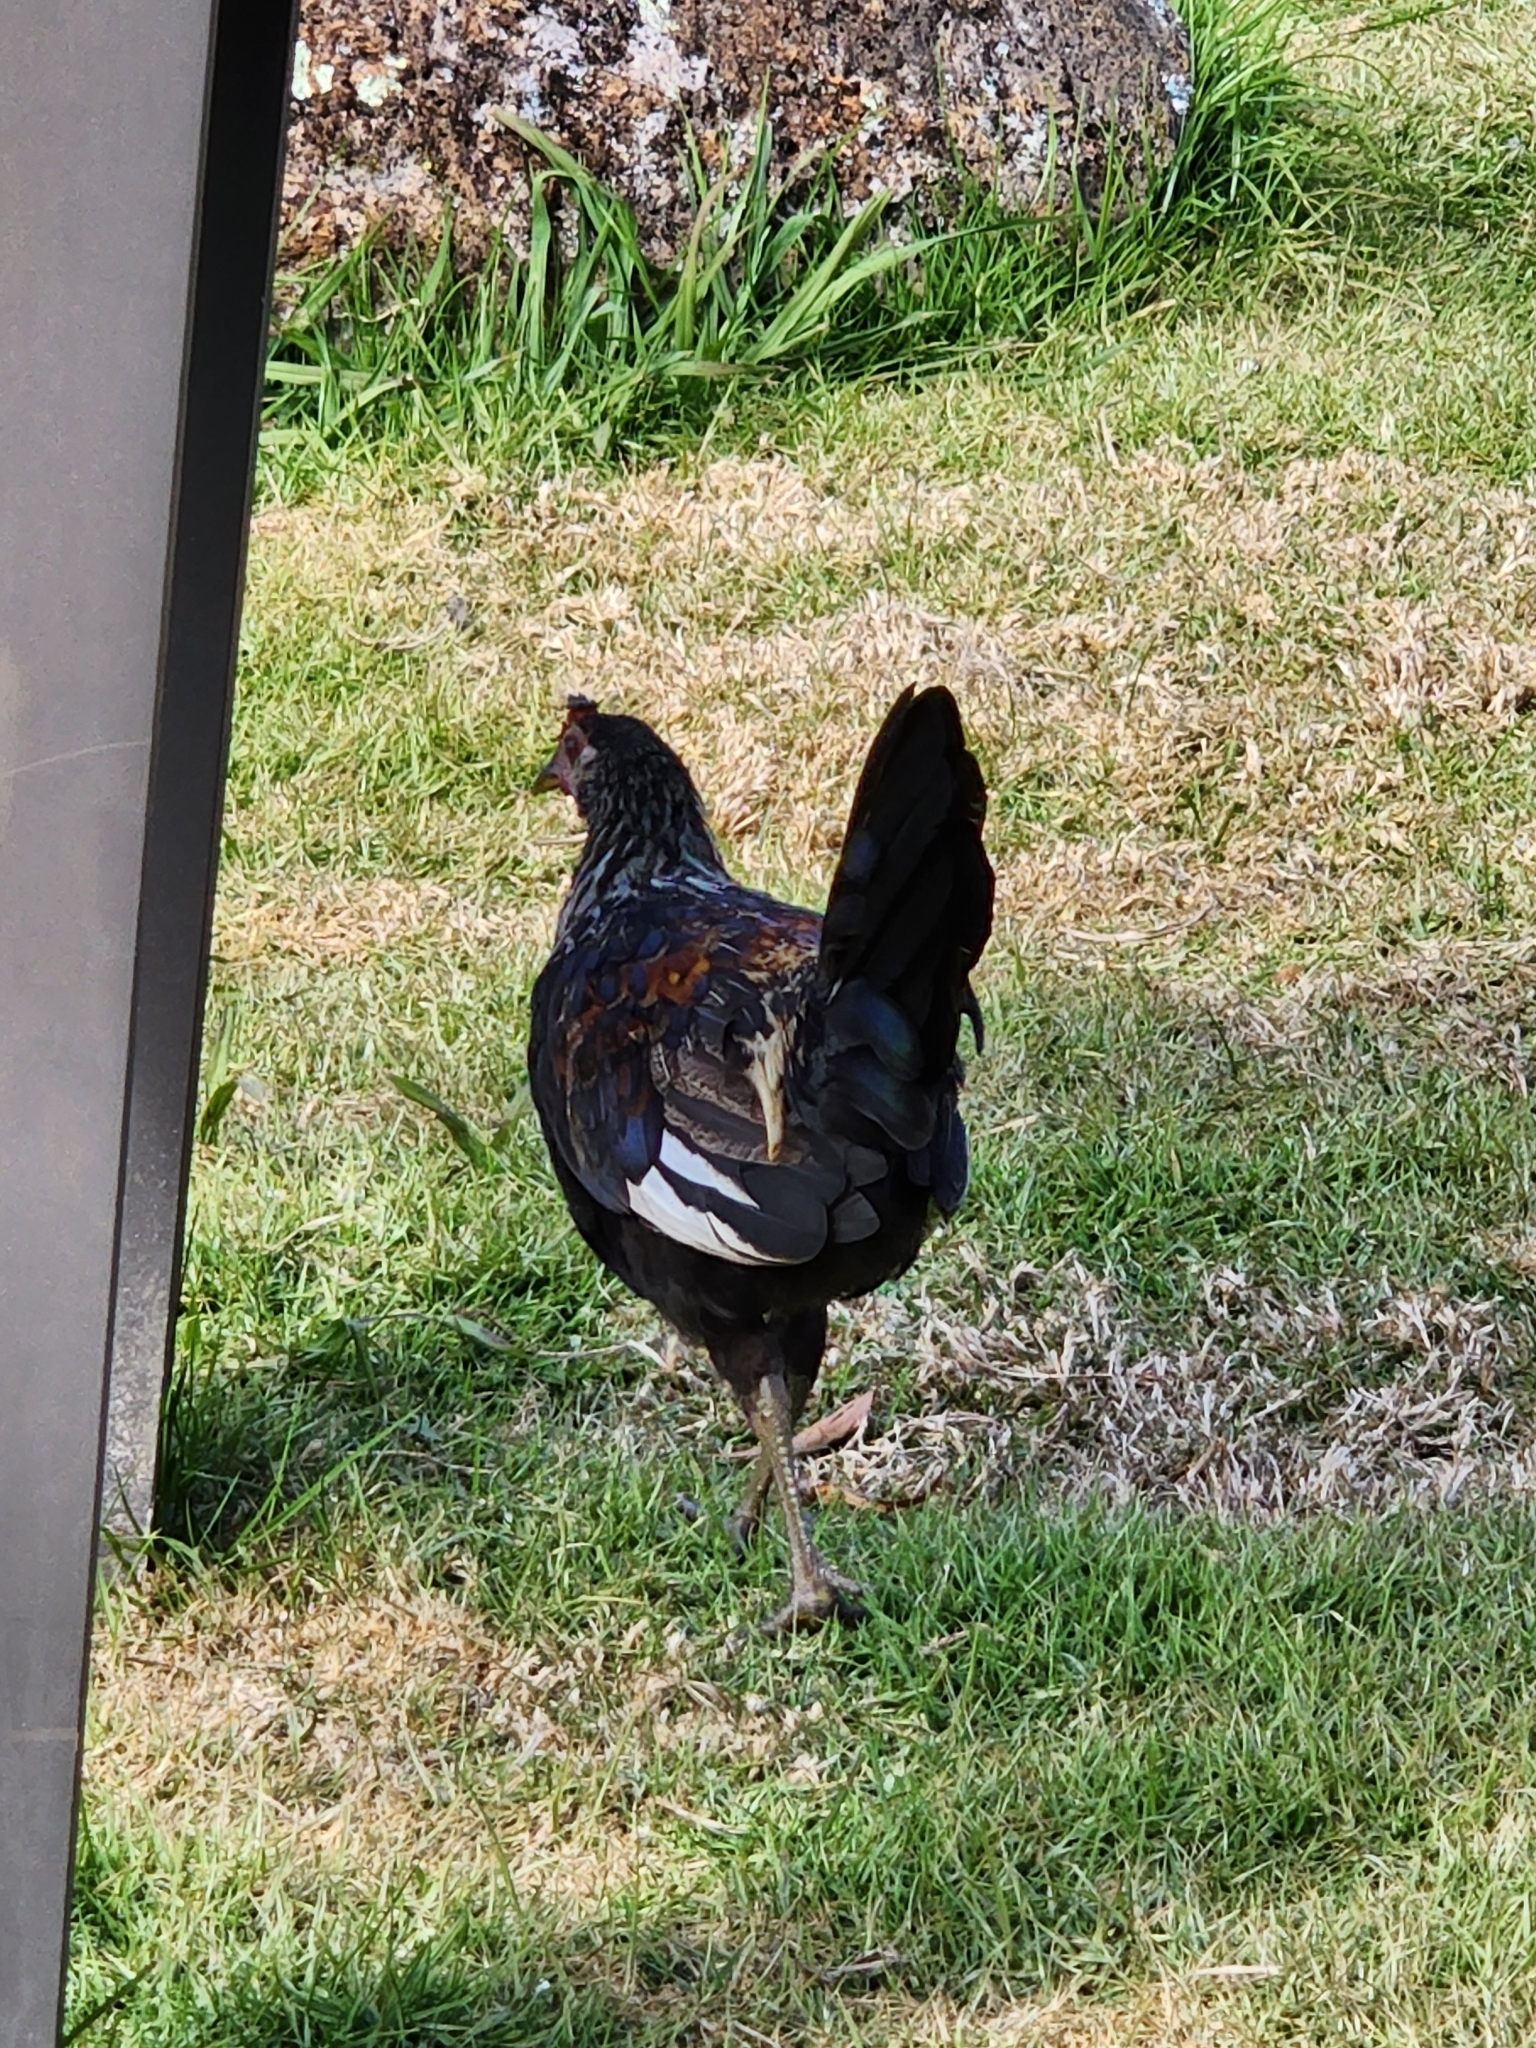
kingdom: Animalia
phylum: Chordata
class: Aves
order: Galliformes
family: Phasianidae
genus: Gallus
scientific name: Gallus gallus
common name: Red junglefowl
